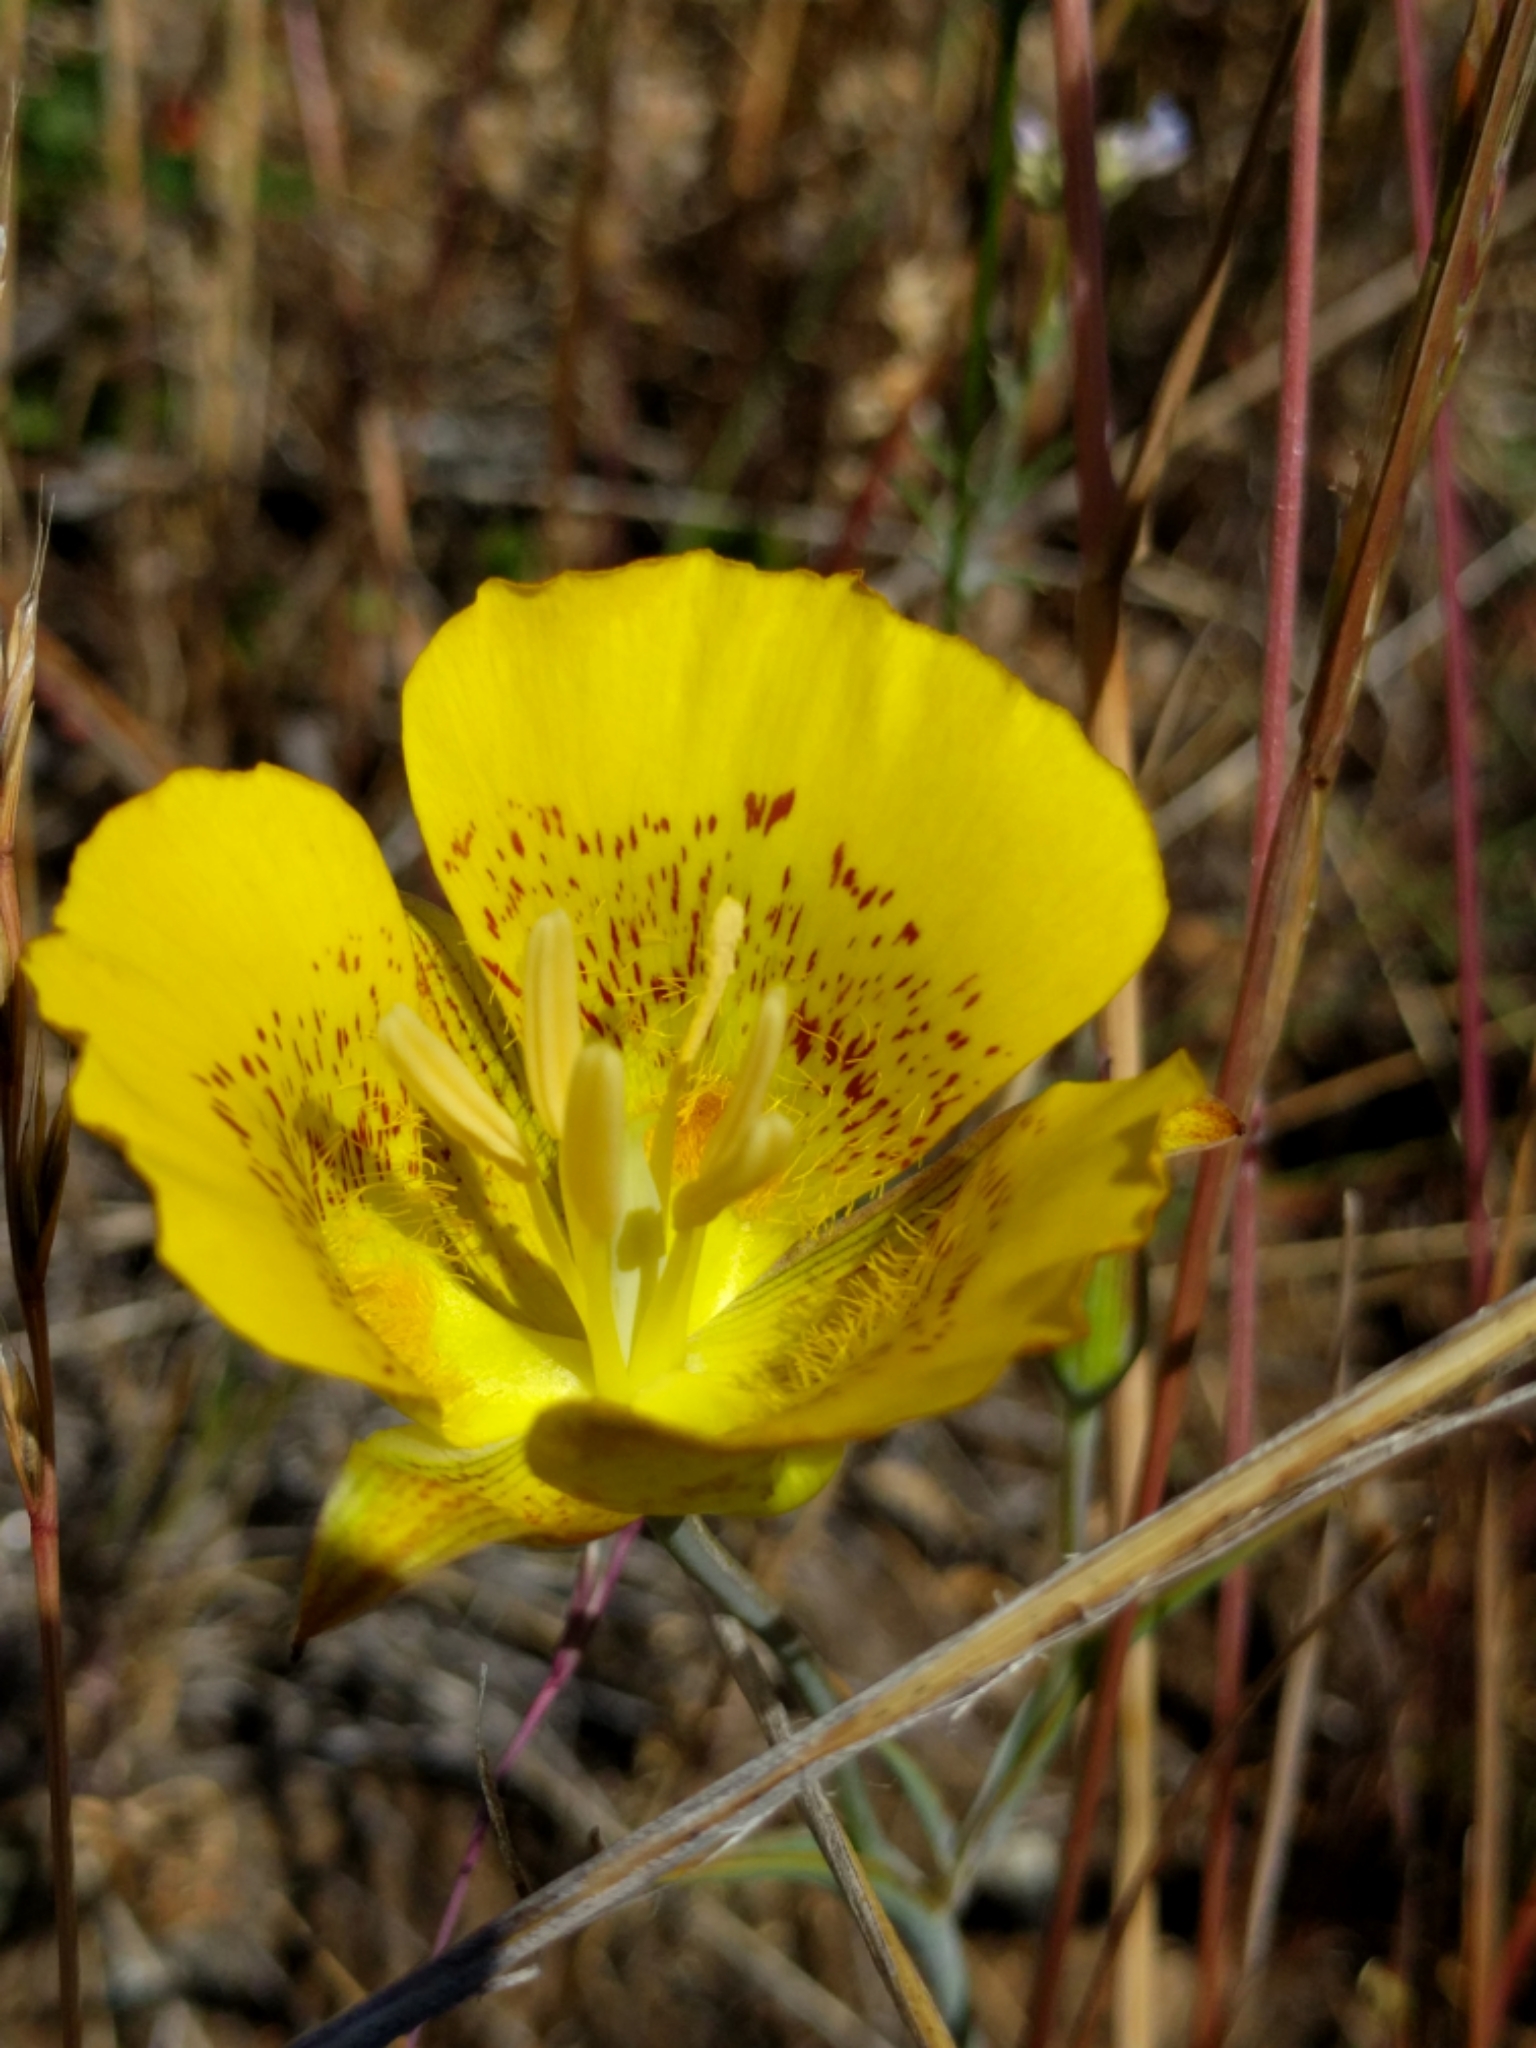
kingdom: Plantae
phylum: Tracheophyta
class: Liliopsida
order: Liliales
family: Liliaceae
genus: Calochortus
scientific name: Calochortus luteus
